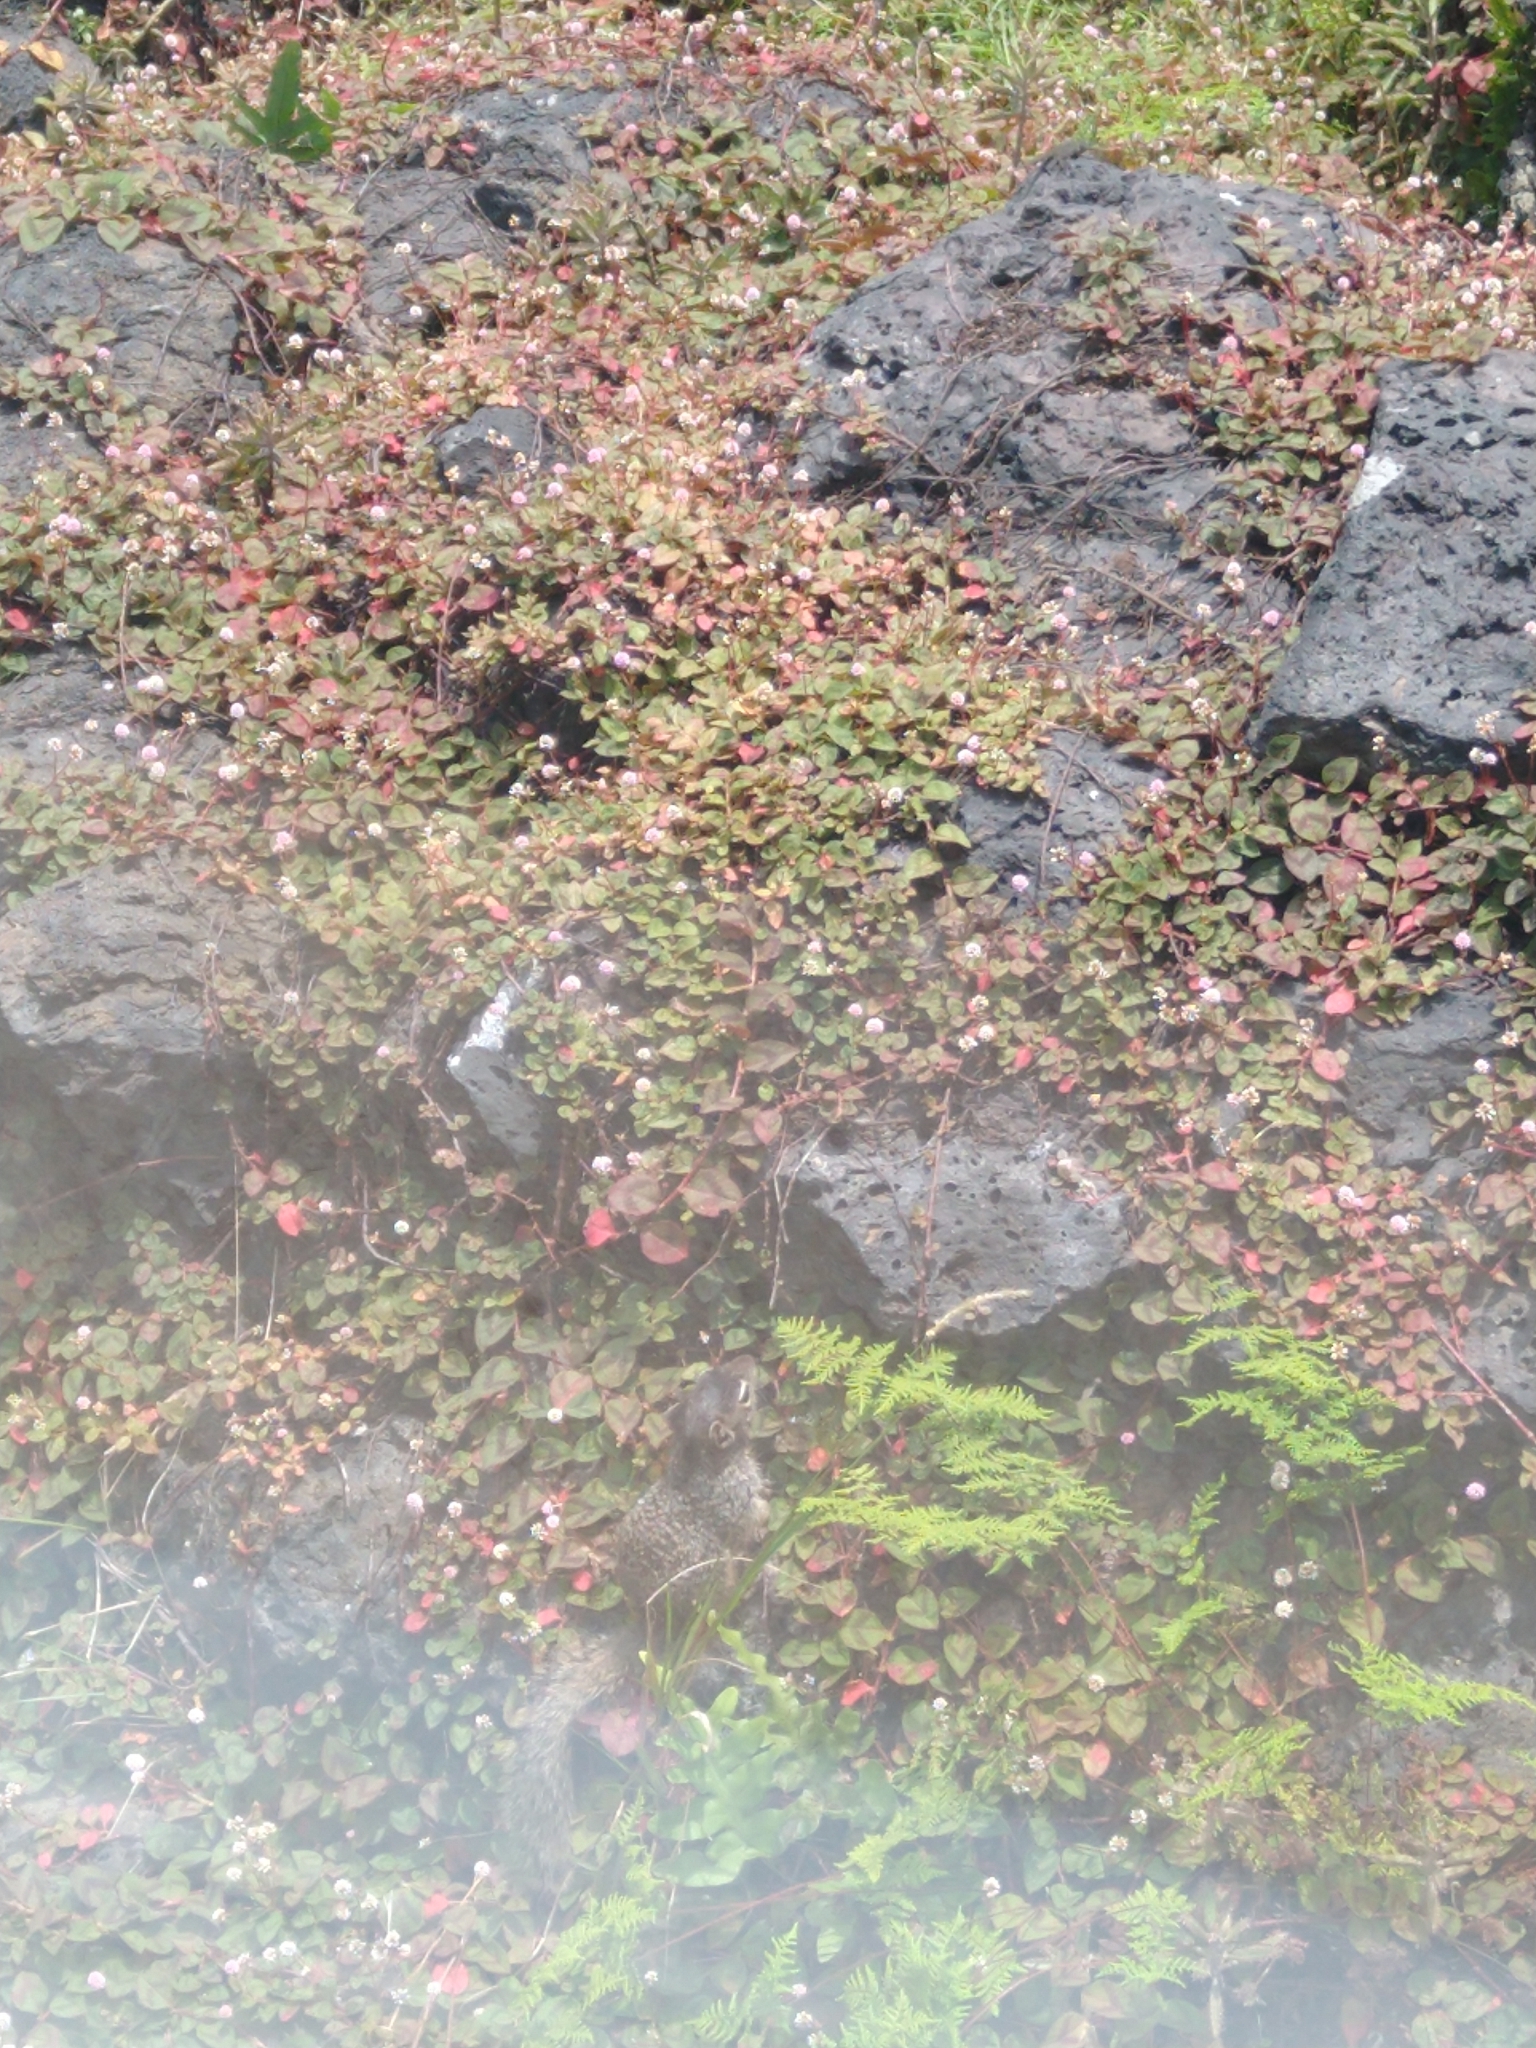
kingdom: Animalia
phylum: Chordata
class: Mammalia
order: Rodentia
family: Sciuridae
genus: Otospermophilus
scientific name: Otospermophilus variegatus
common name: Rock squirrel
